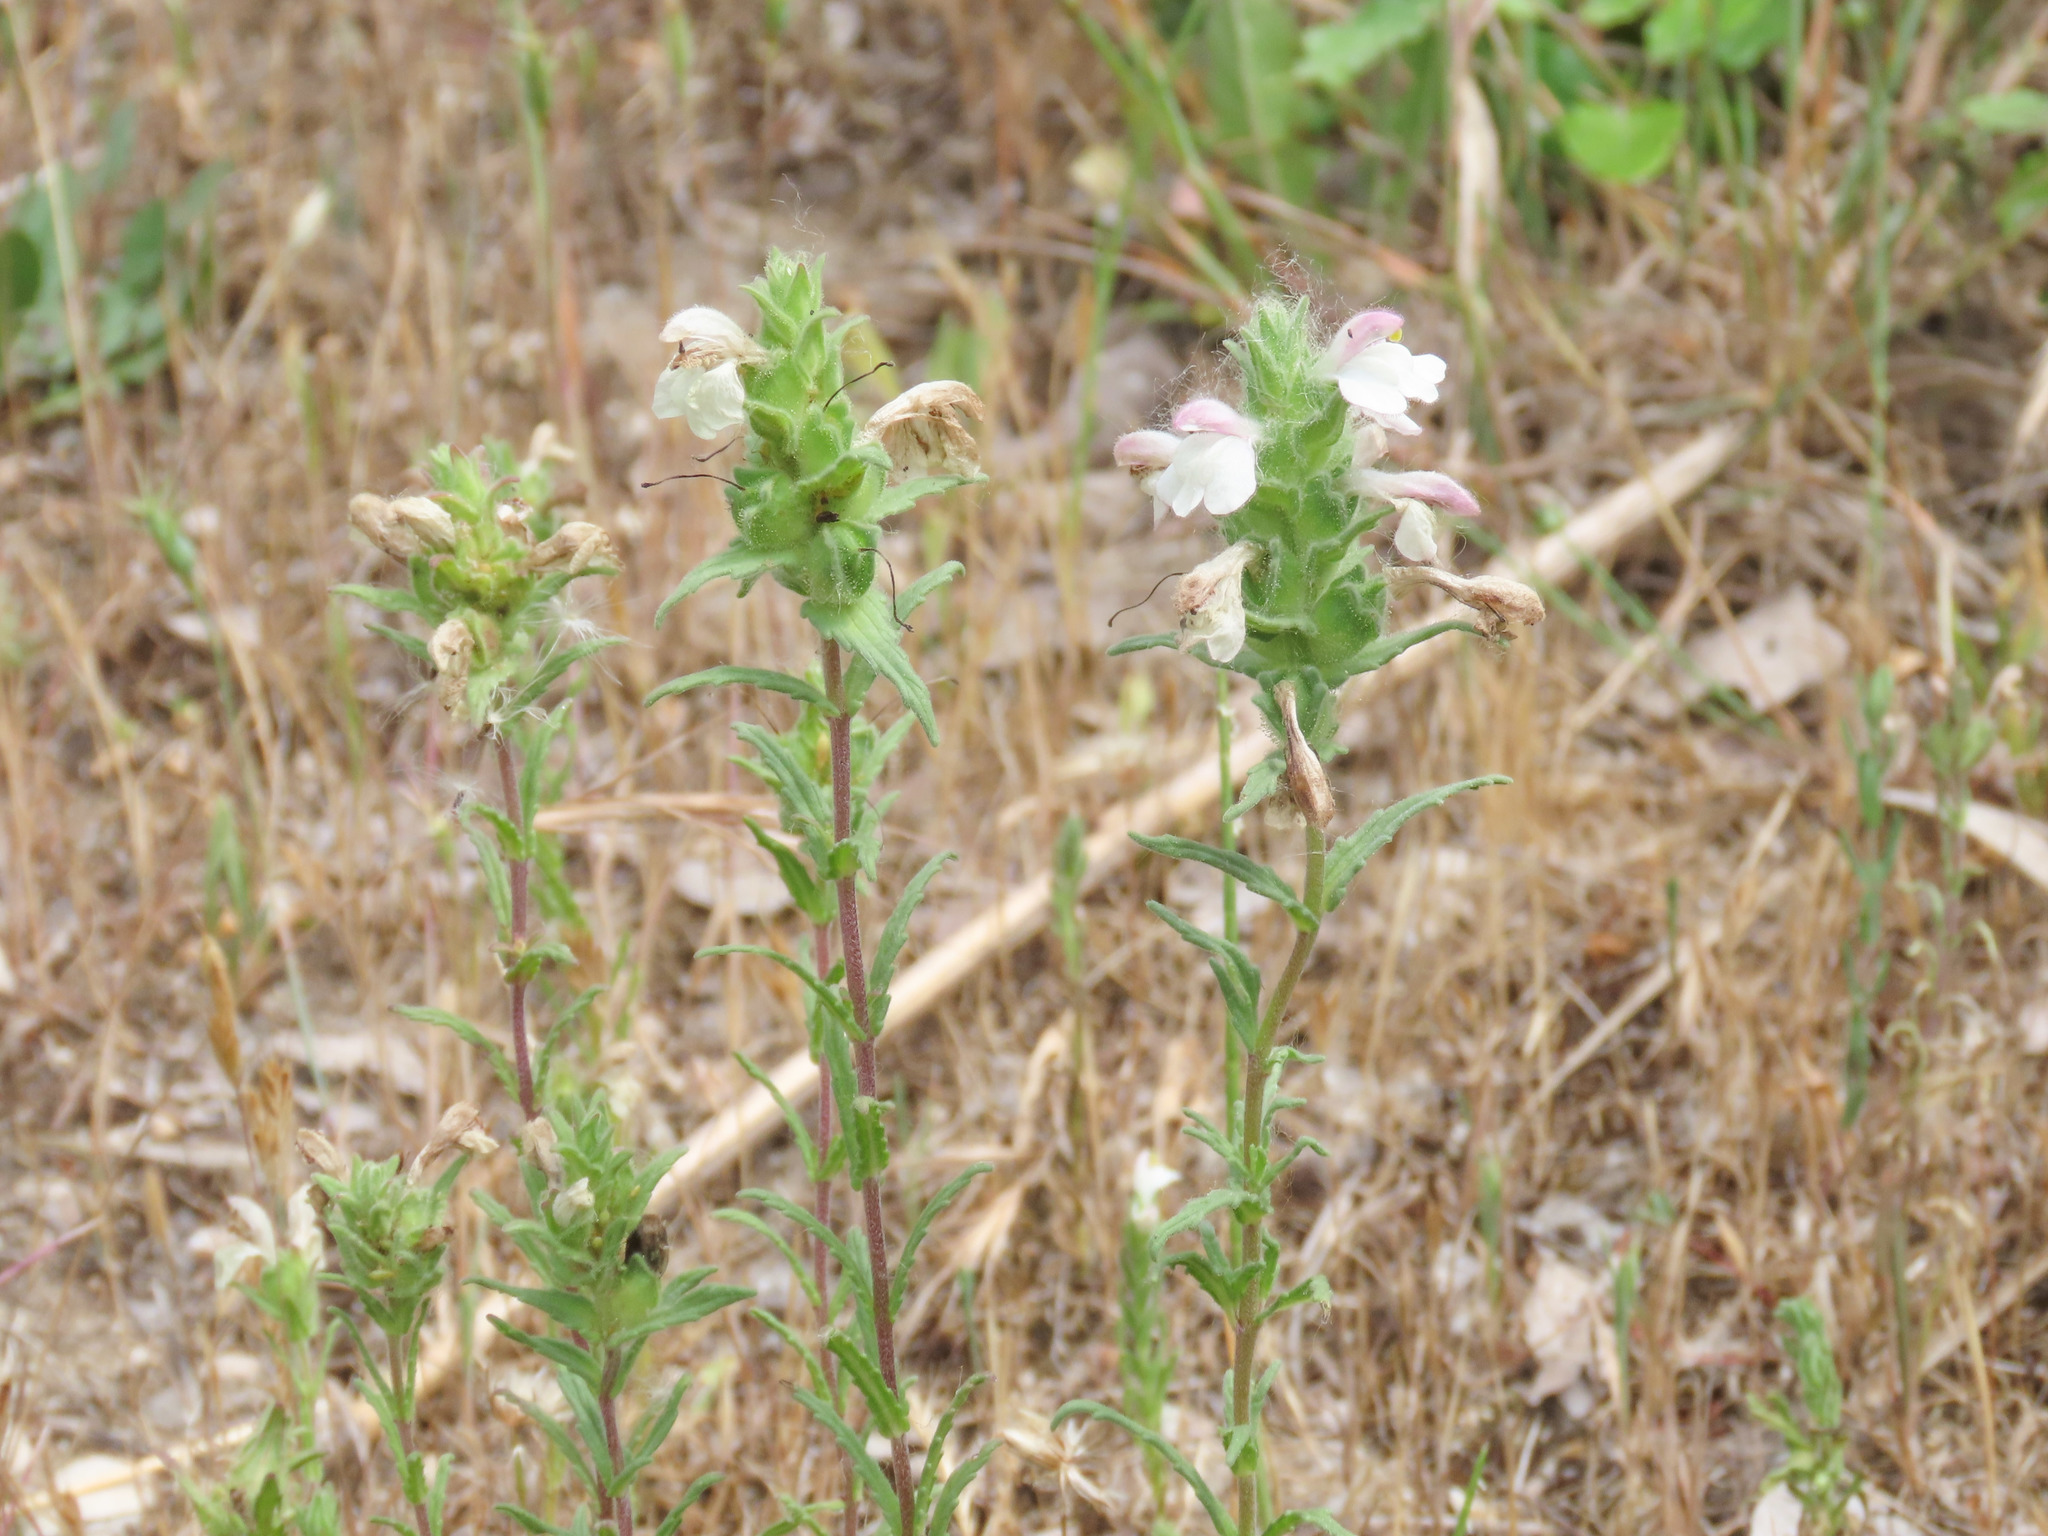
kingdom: Plantae
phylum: Tracheophyta
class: Magnoliopsida
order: Lamiales
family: Orobanchaceae
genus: Bellardia
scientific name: Bellardia trixago
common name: Mediterranean lineseed
